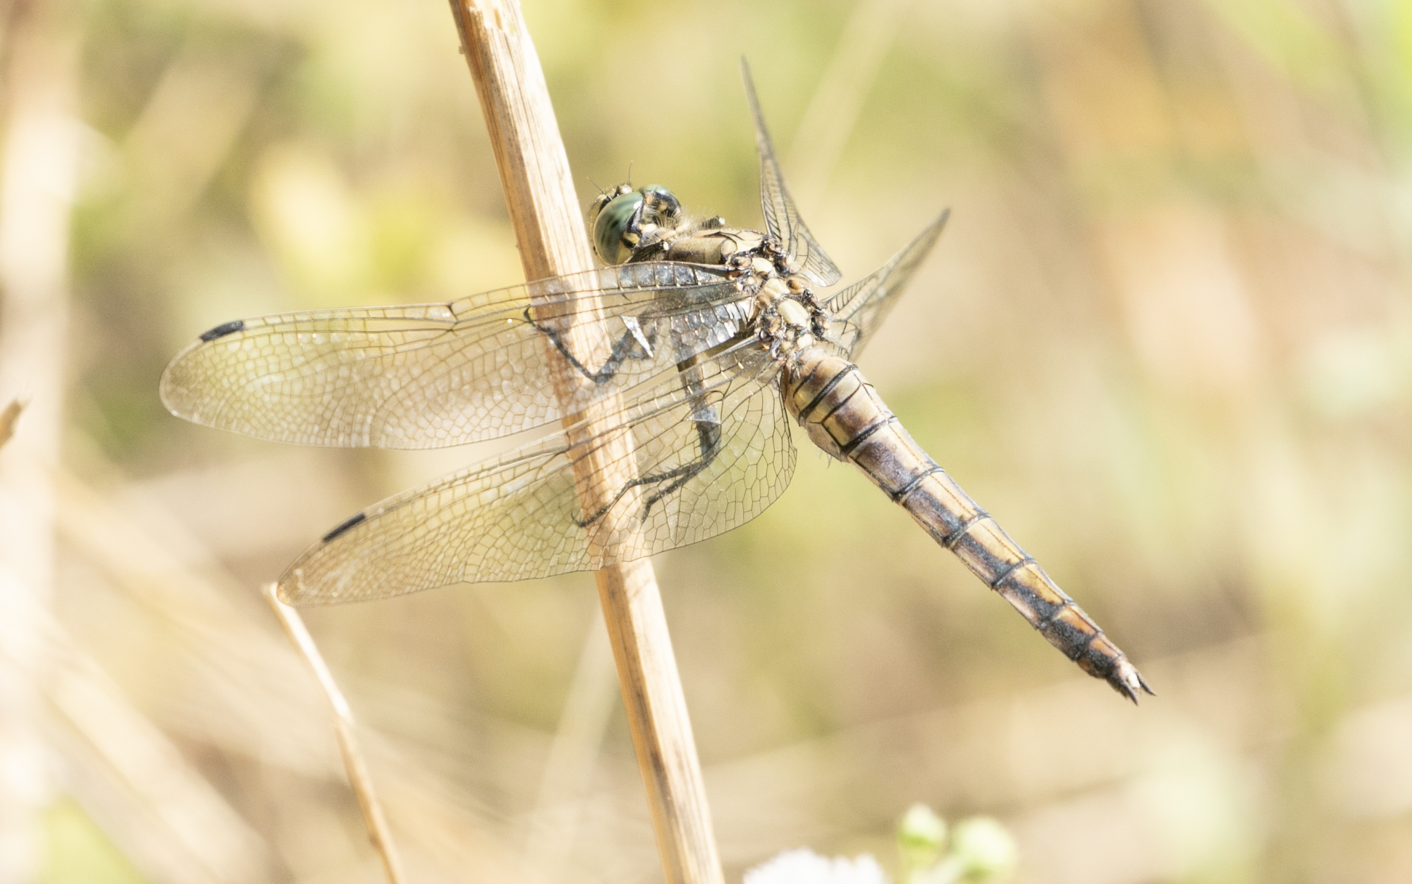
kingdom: Animalia
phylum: Arthropoda
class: Insecta
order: Odonata
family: Libellulidae
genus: Orthetrum
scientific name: Orthetrum cancellatum
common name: Black-tailed skimmer
